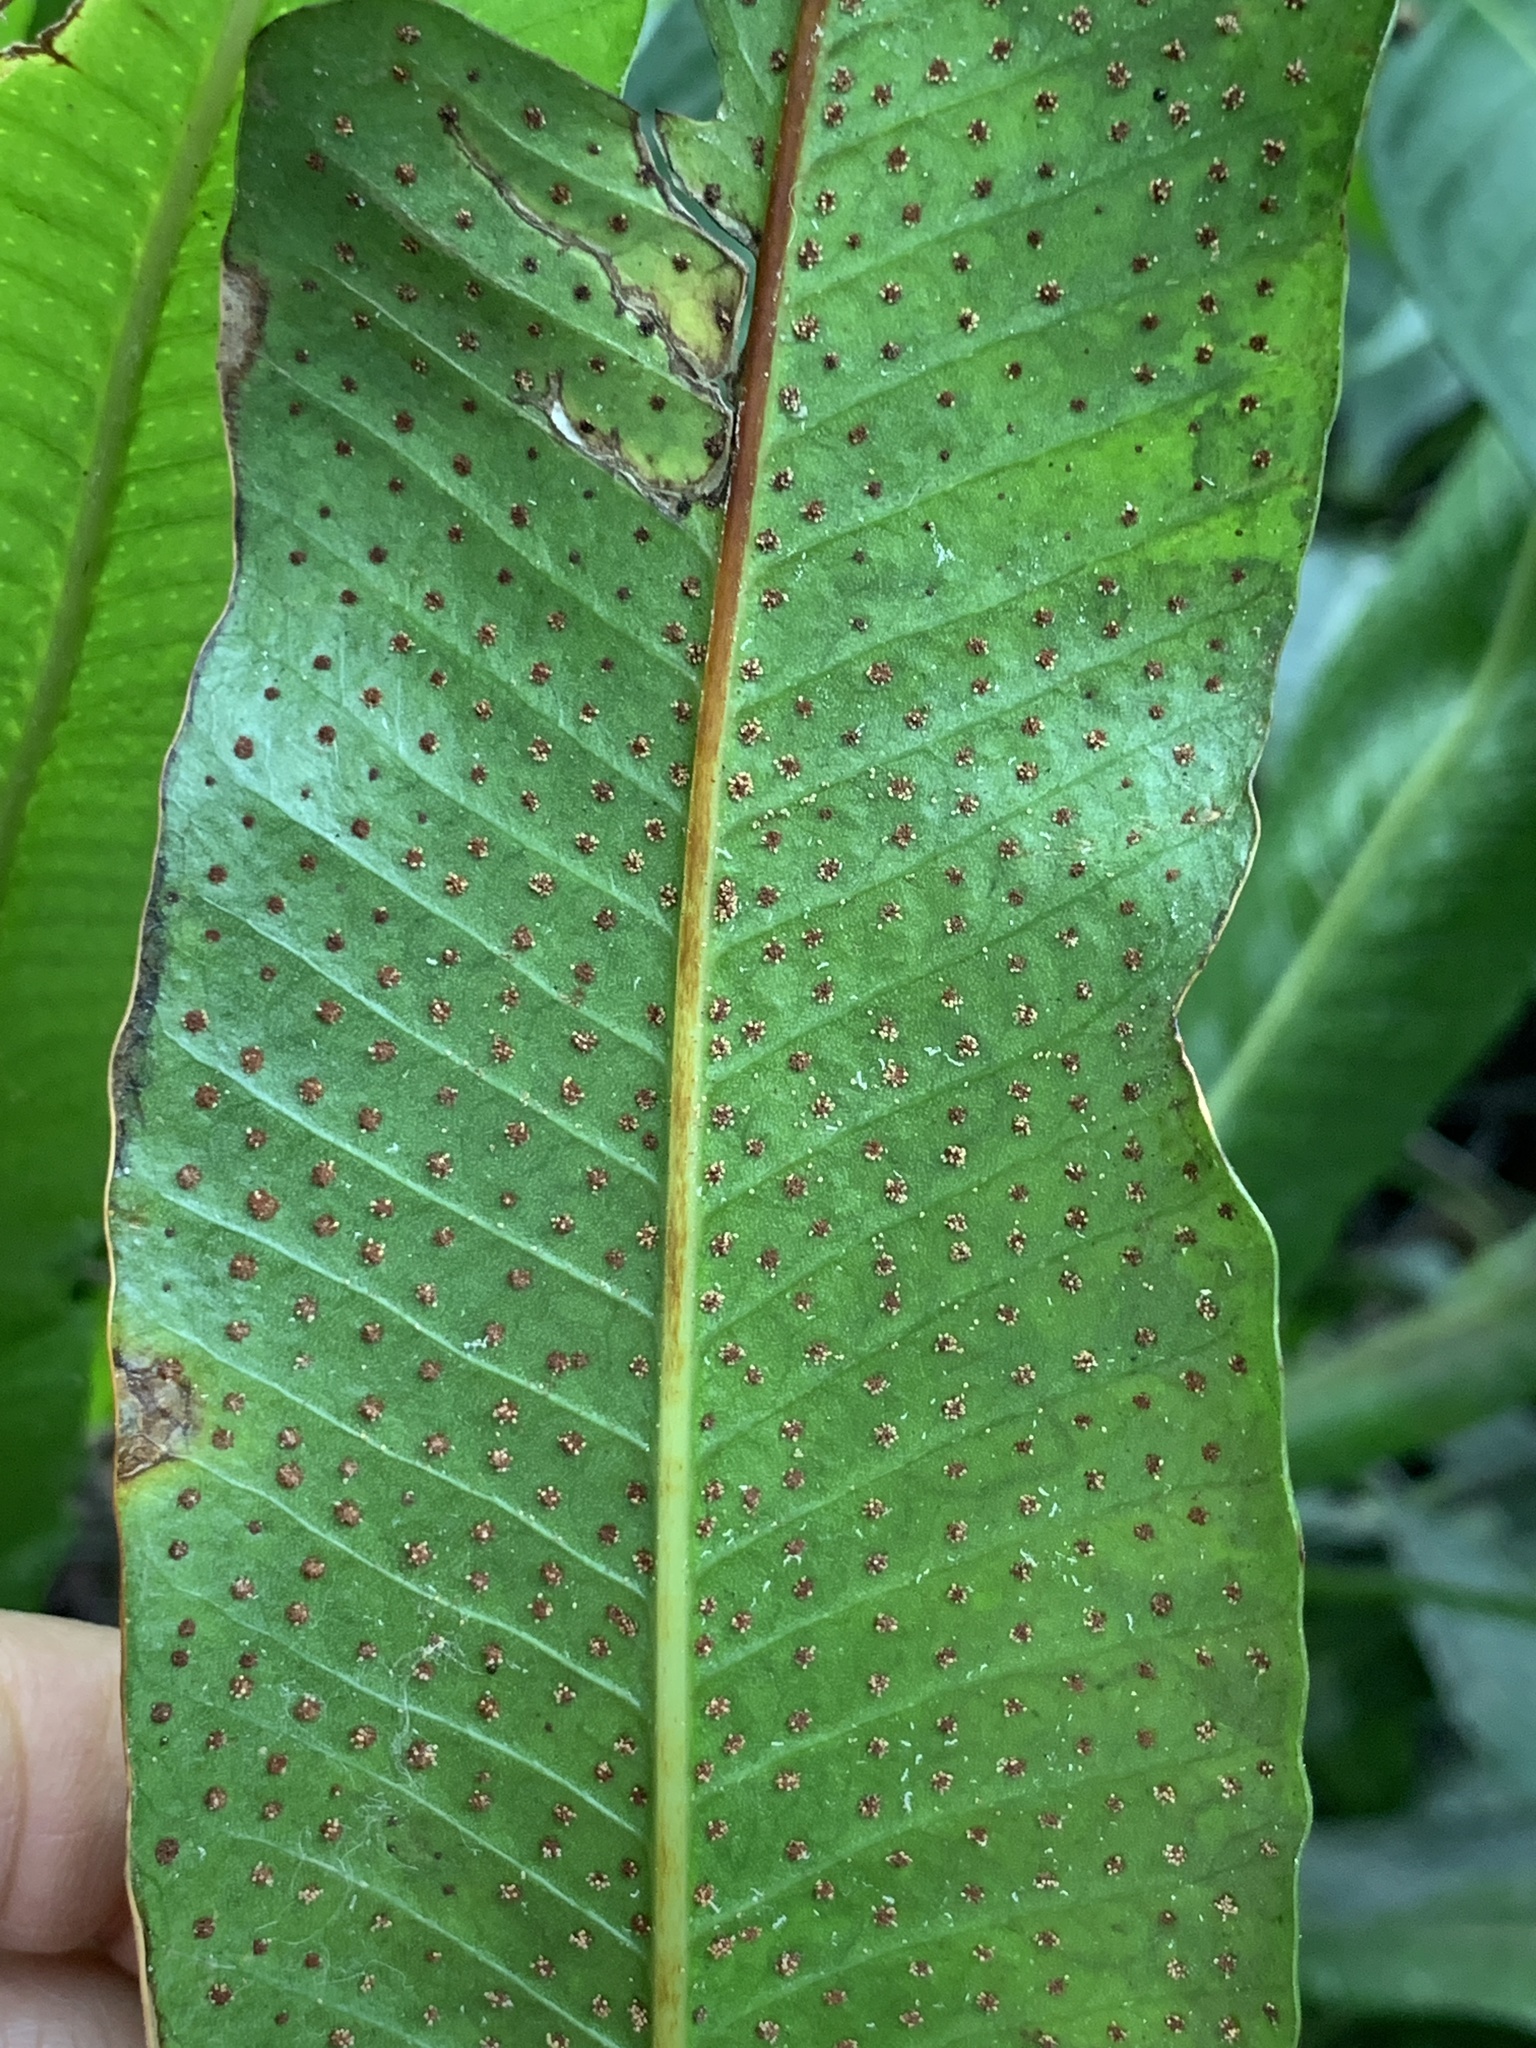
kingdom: Plantae
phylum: Tracheophyta
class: Polypodiopsida
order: Polypodiales
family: Polypodiaceae
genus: Campyloneurum
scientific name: Campyloneurum phyllitidis
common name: Cow-tongue fern
